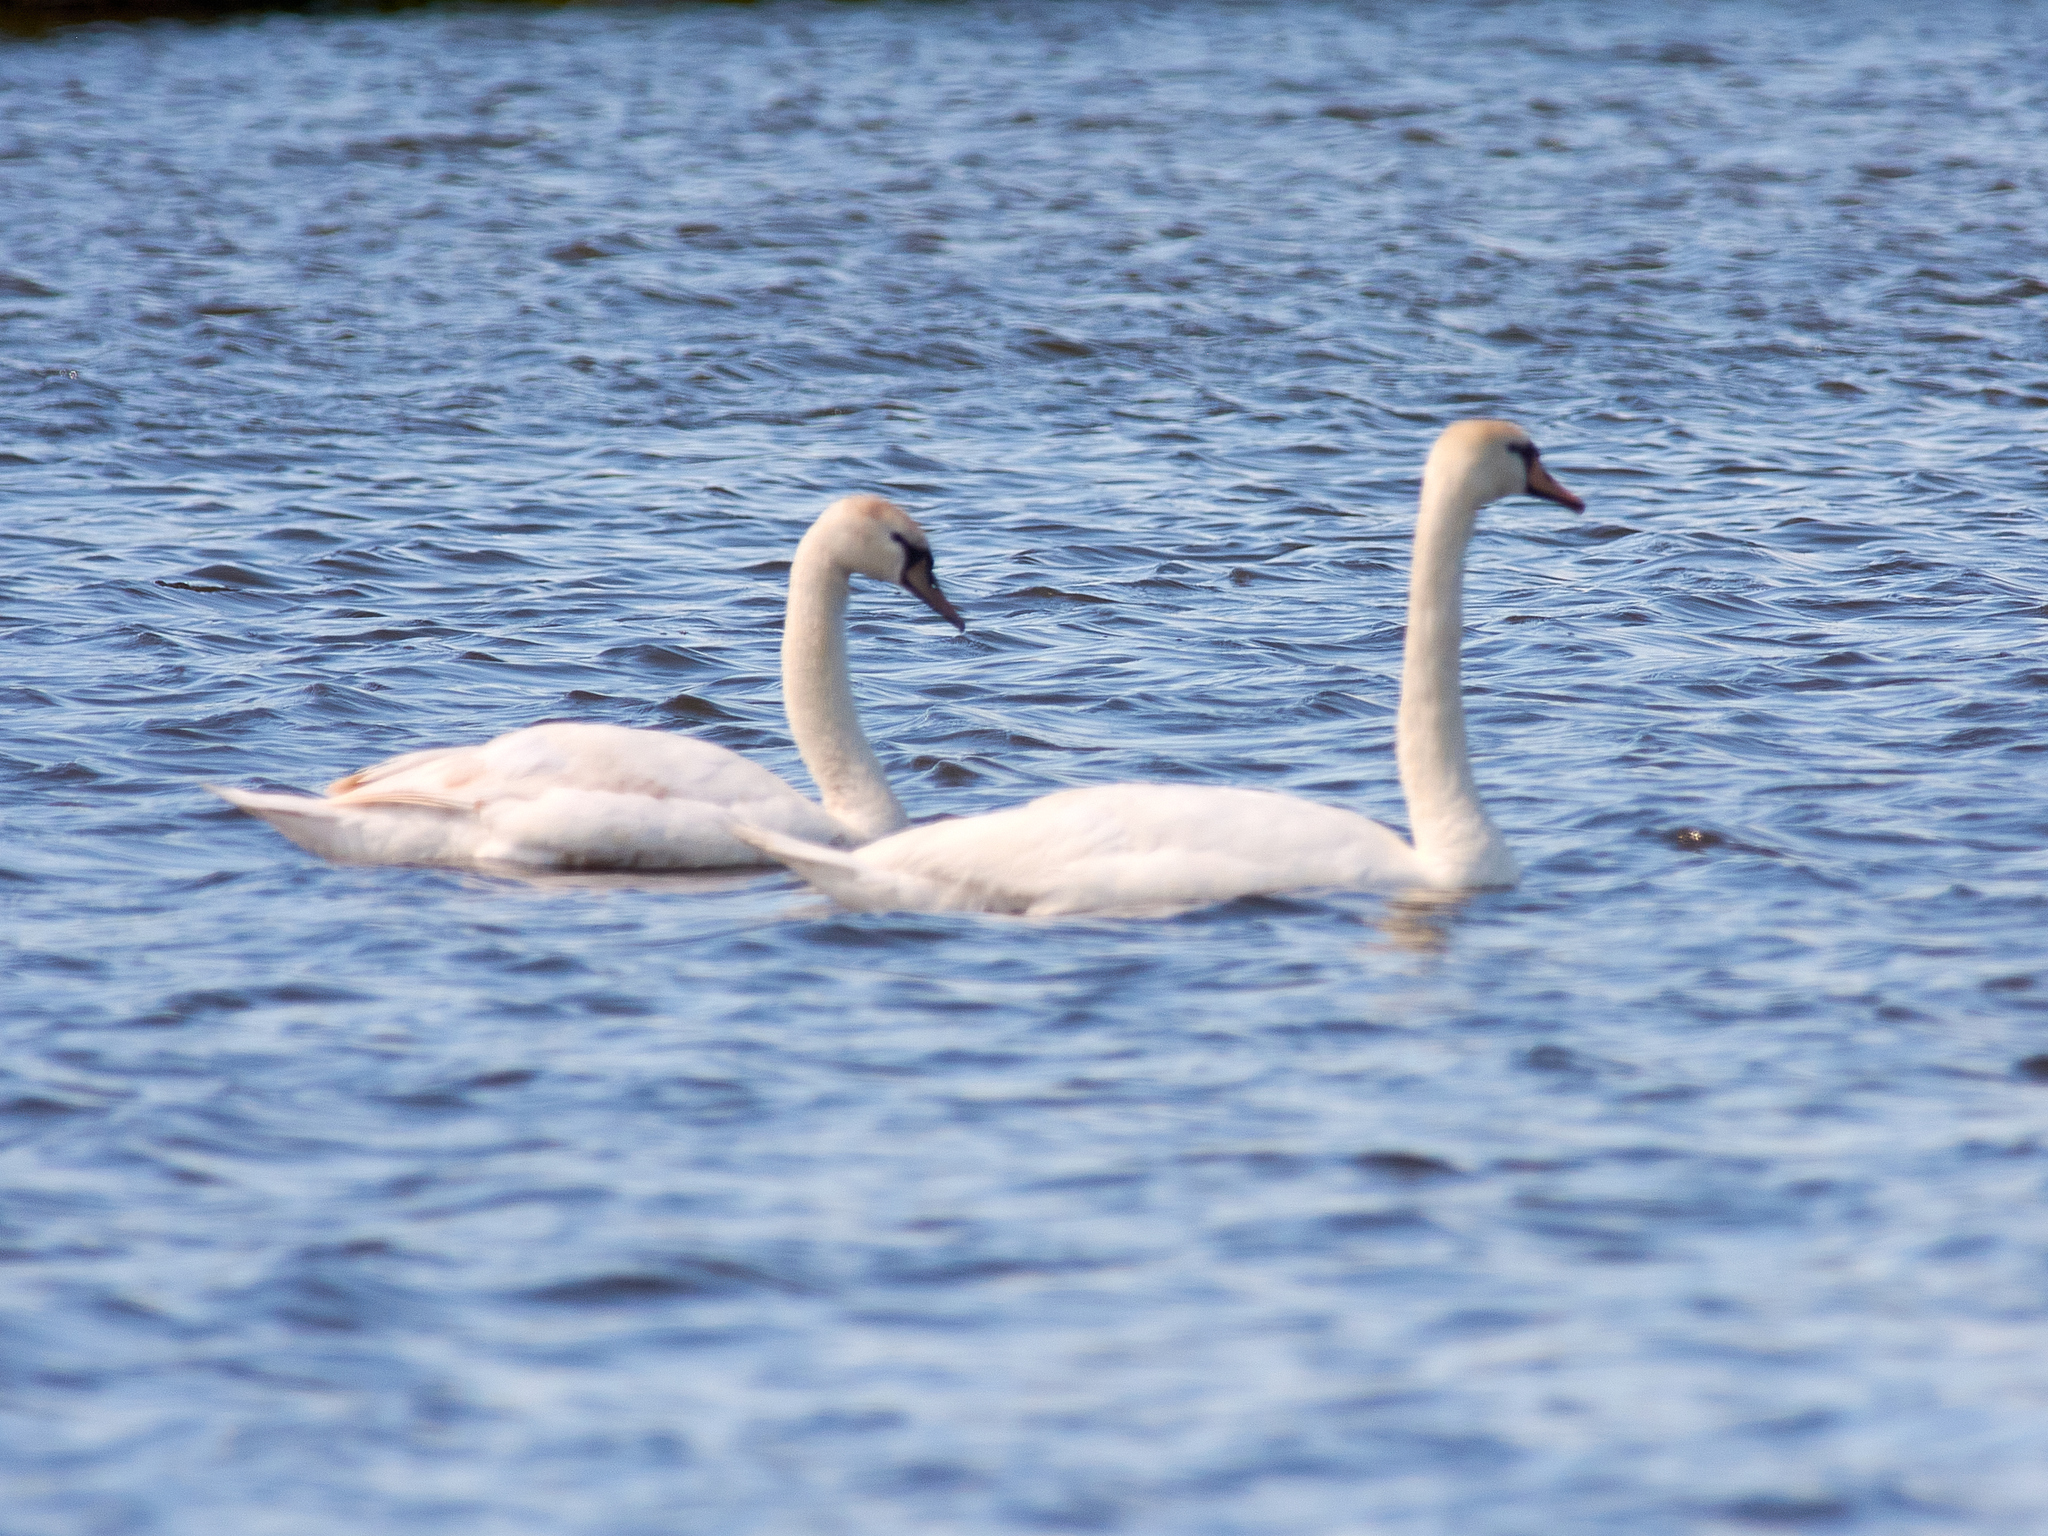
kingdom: Animalia
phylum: Chordata
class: Aves
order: Anseriformes
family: Anatidae
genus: Cygnus
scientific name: Cygnus olor
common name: Mute swan
